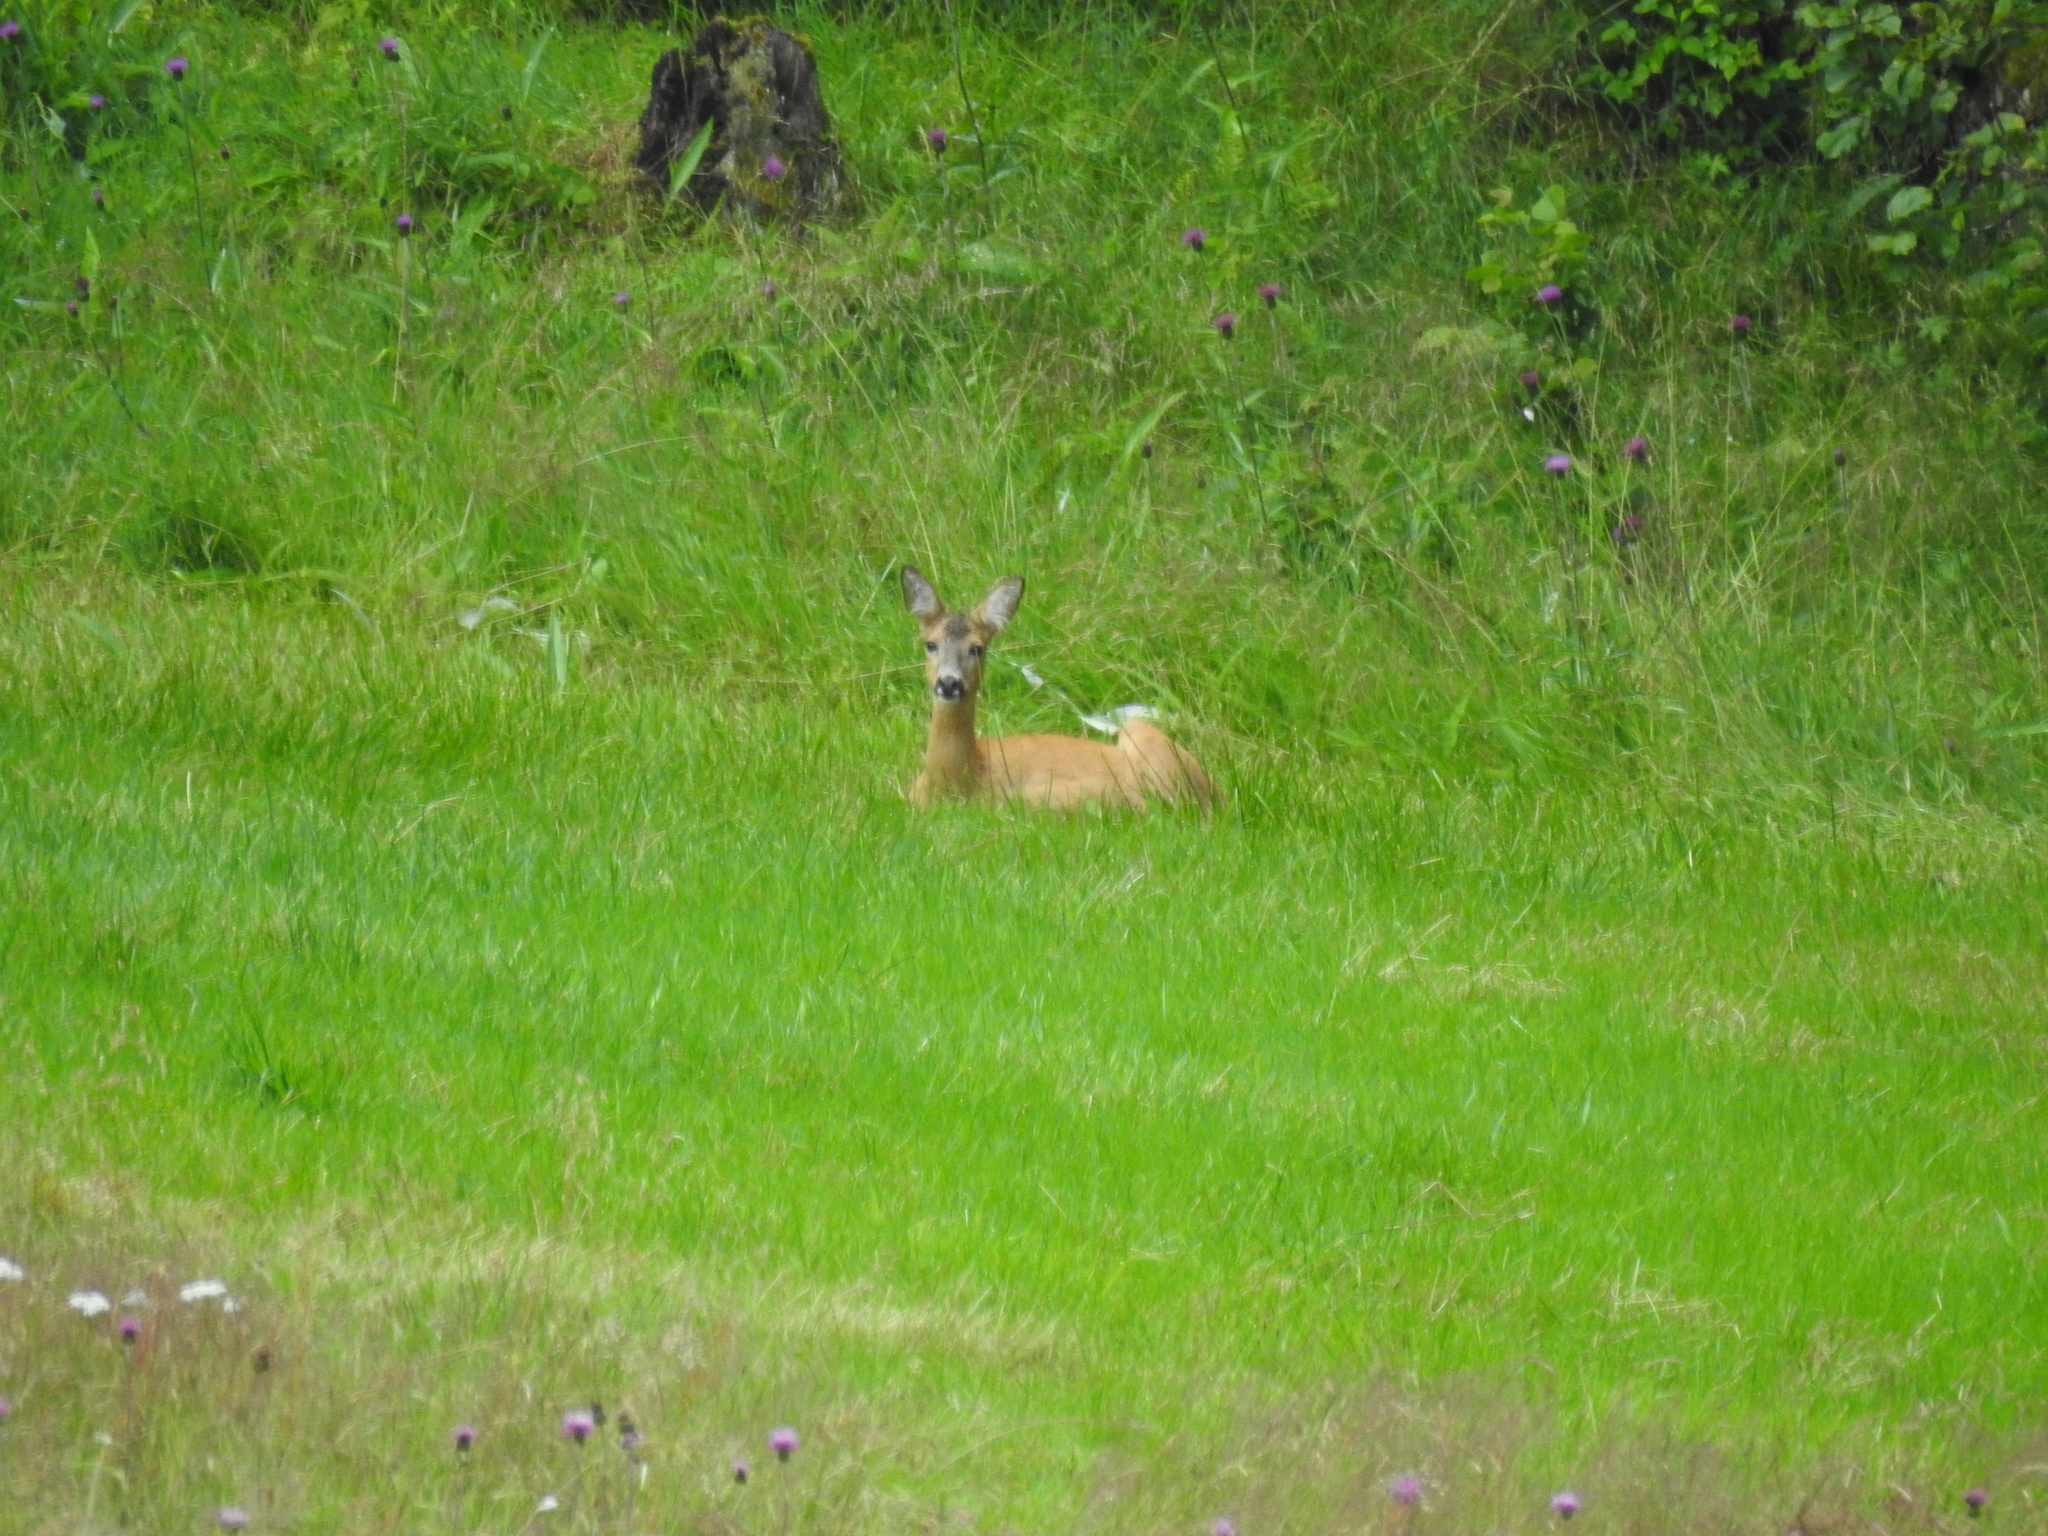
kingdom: Animalia
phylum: Chordata
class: Mammalia
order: Artiodactyla
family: Cervidae
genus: Capreolus
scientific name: Capreolus capreolus
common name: Western roe deer
